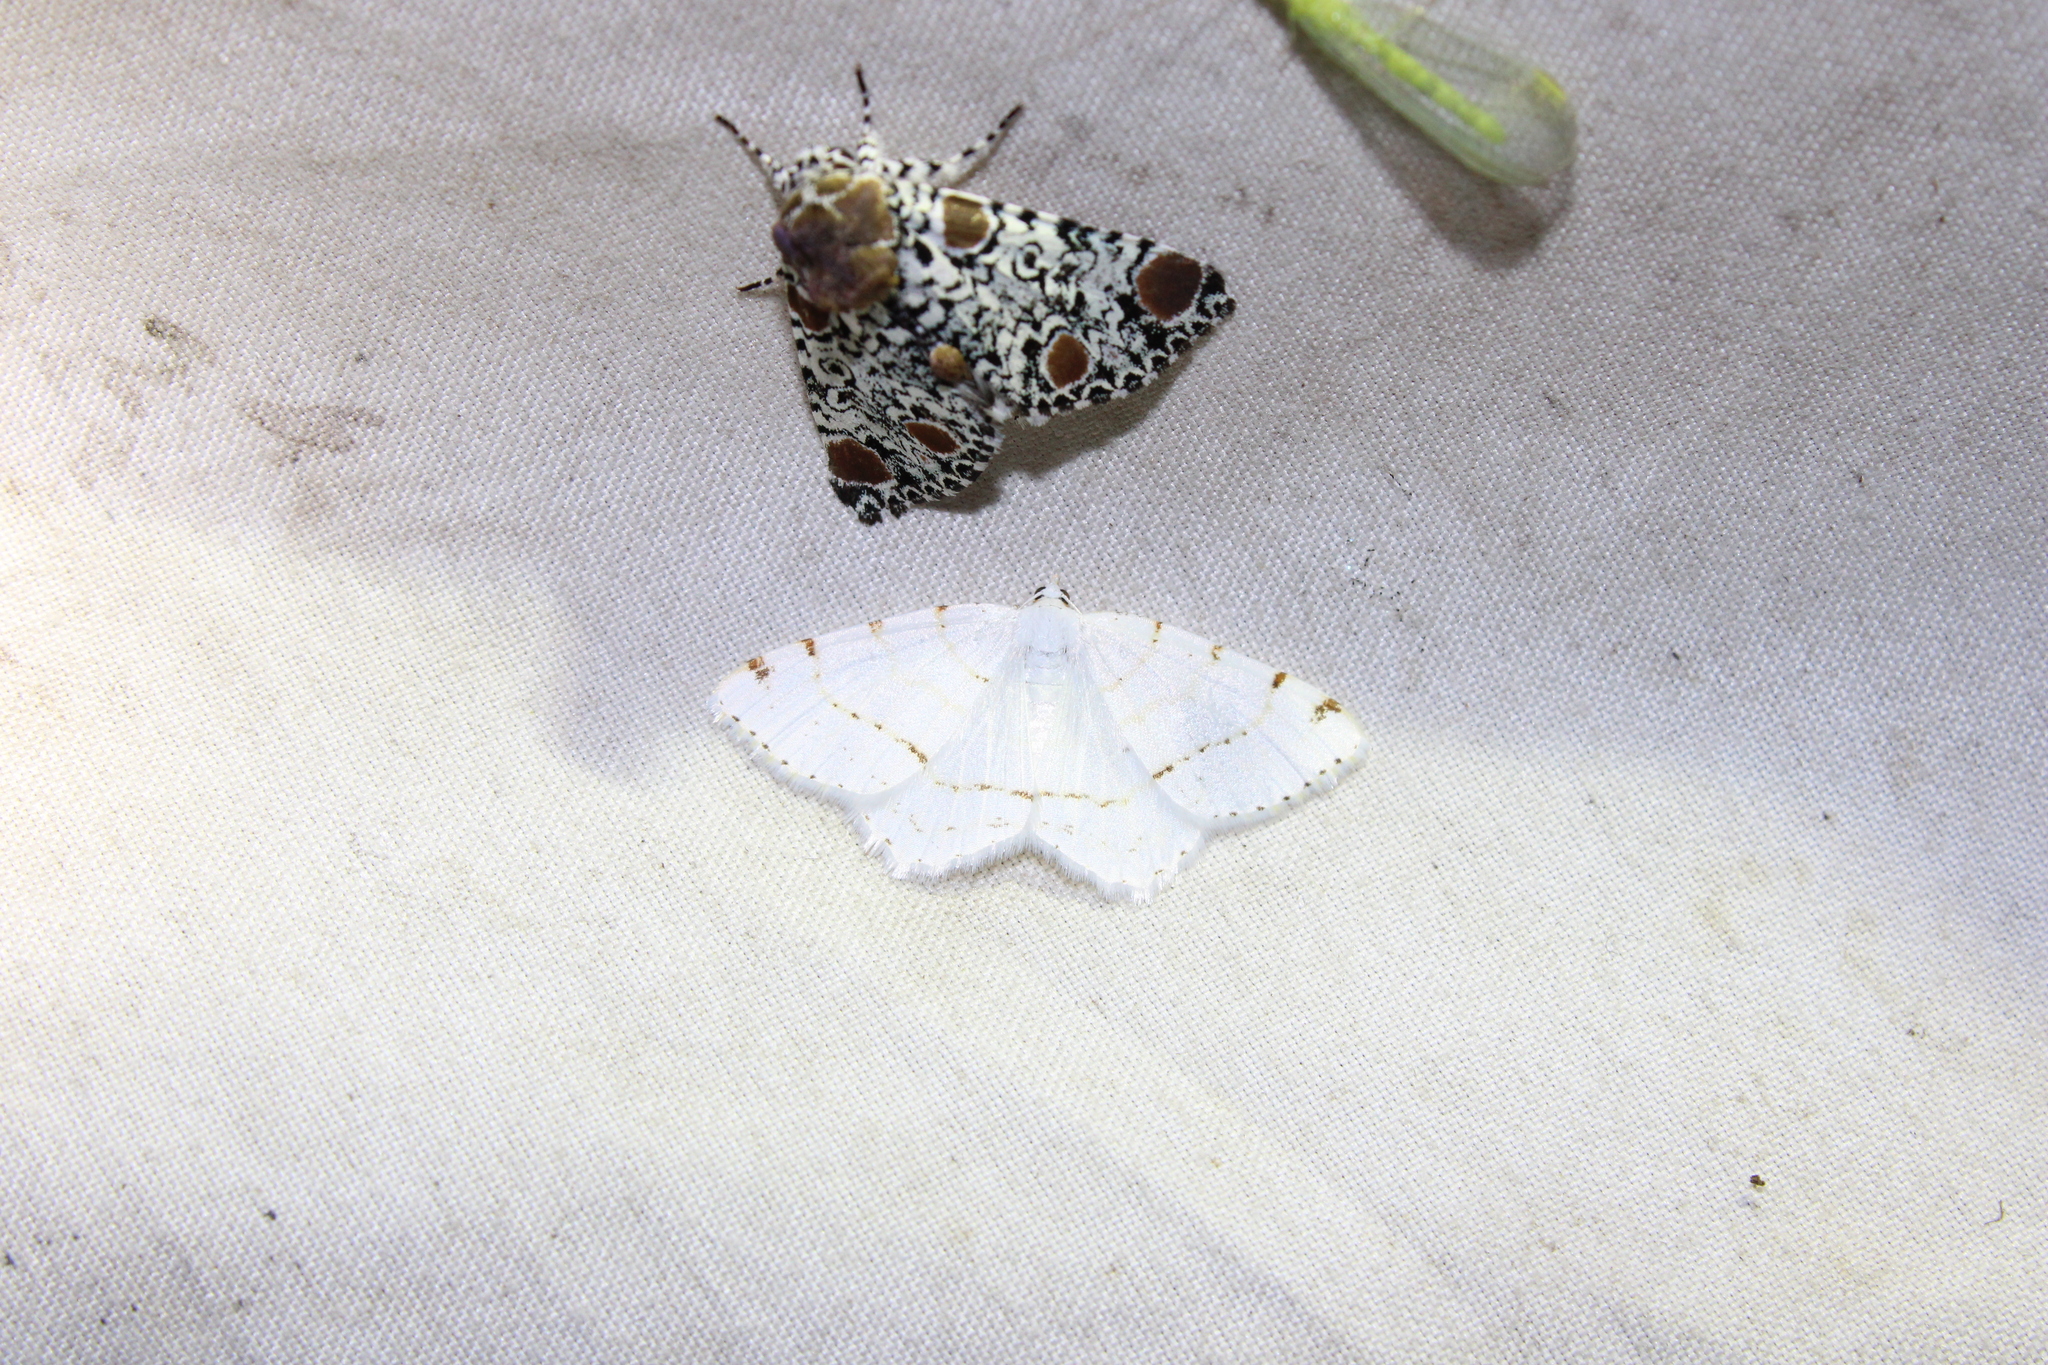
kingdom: Animalia
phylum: Arthropoda
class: Insecta
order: Lepidoptera
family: Geometridae
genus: Macaria
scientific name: Macaria pustularia
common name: Lesser maple spanworm moth
